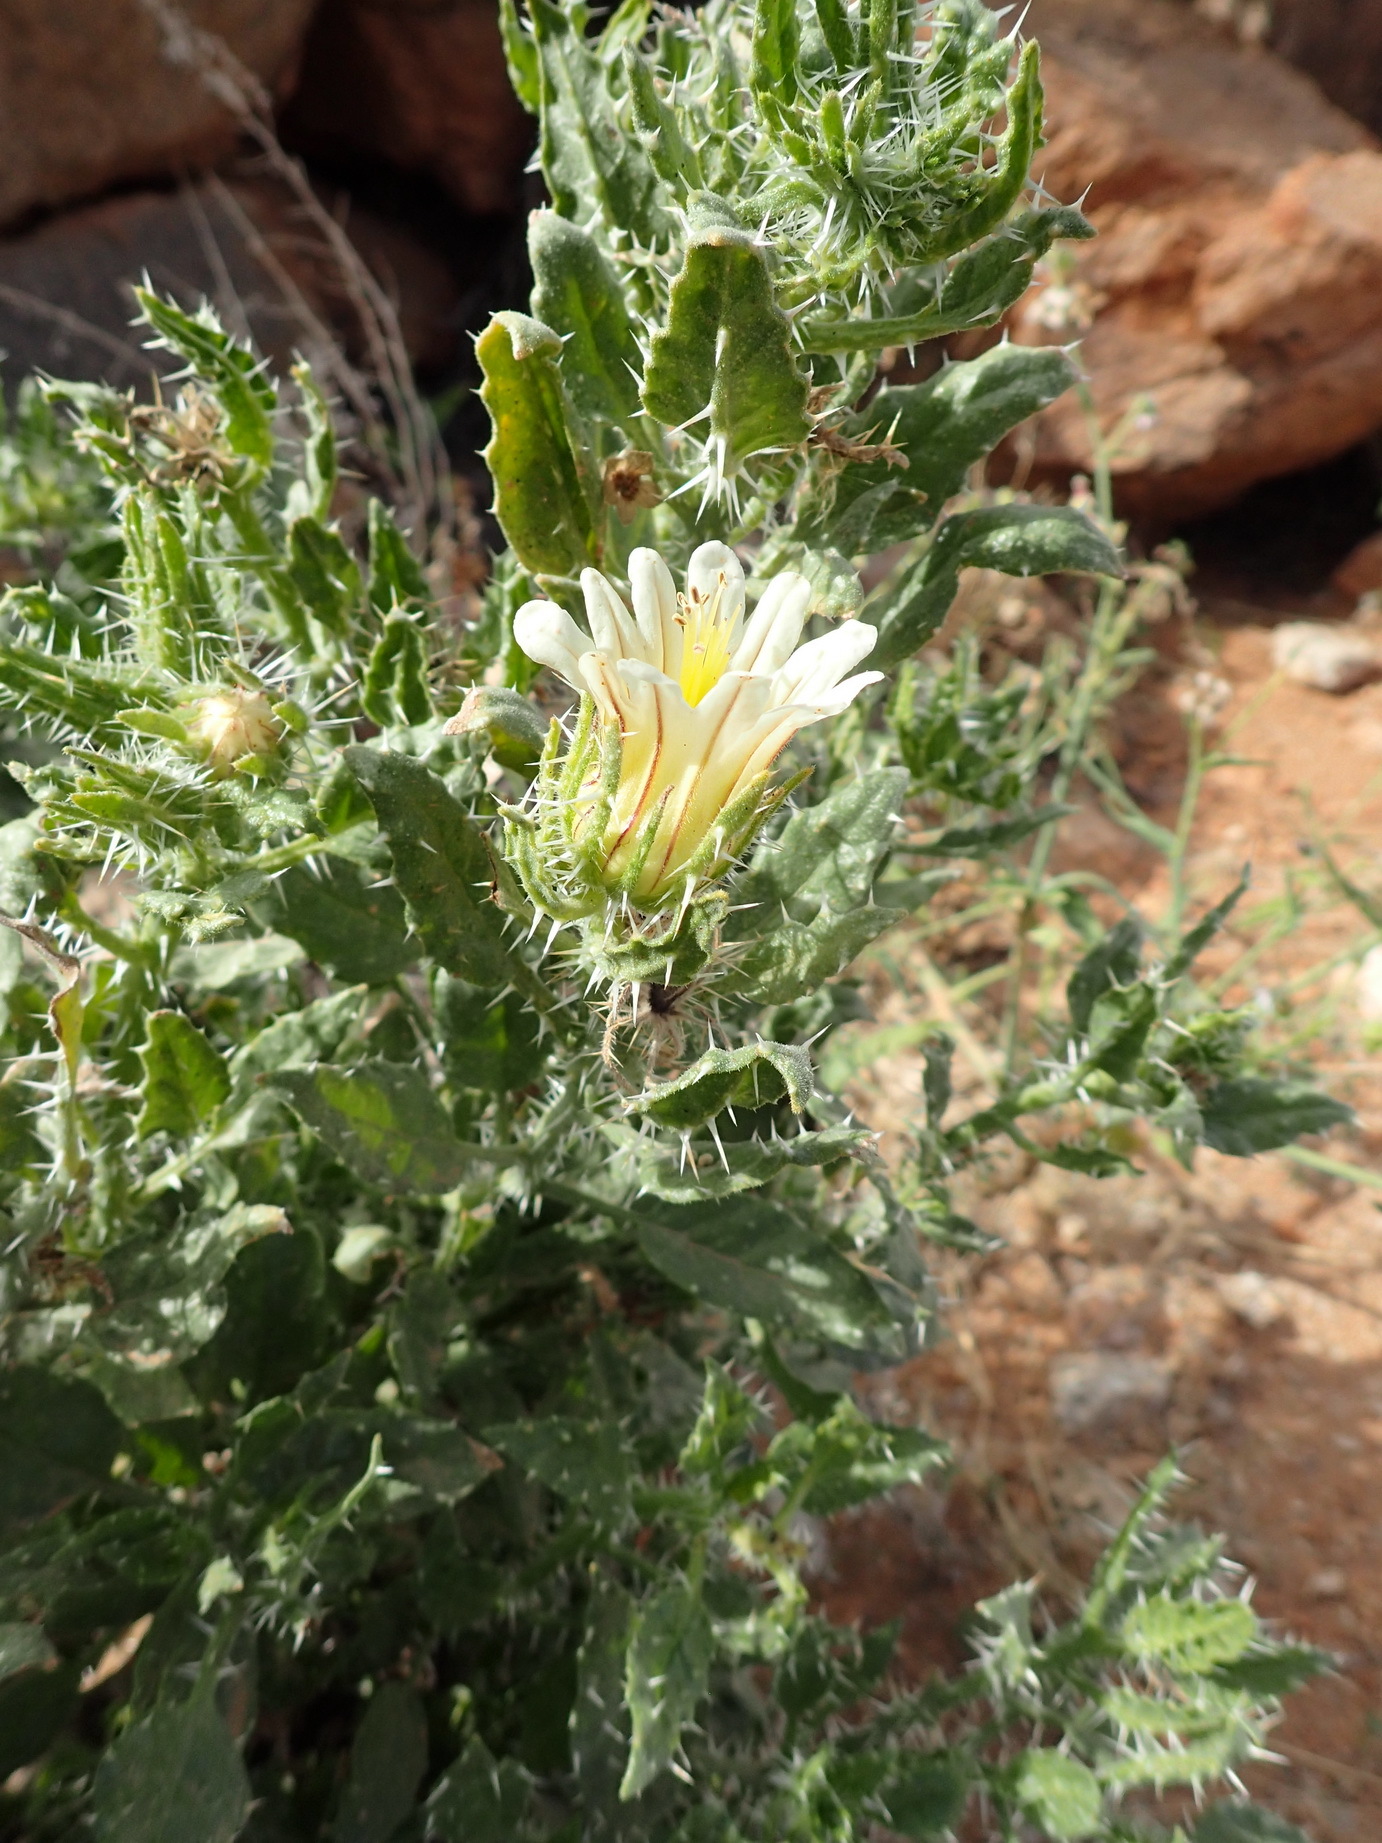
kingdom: Plantae
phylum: Tracheophyta
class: Magnoliopsida
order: Boraginales
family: Boraginaceae
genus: Codon
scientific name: Codon royenii
